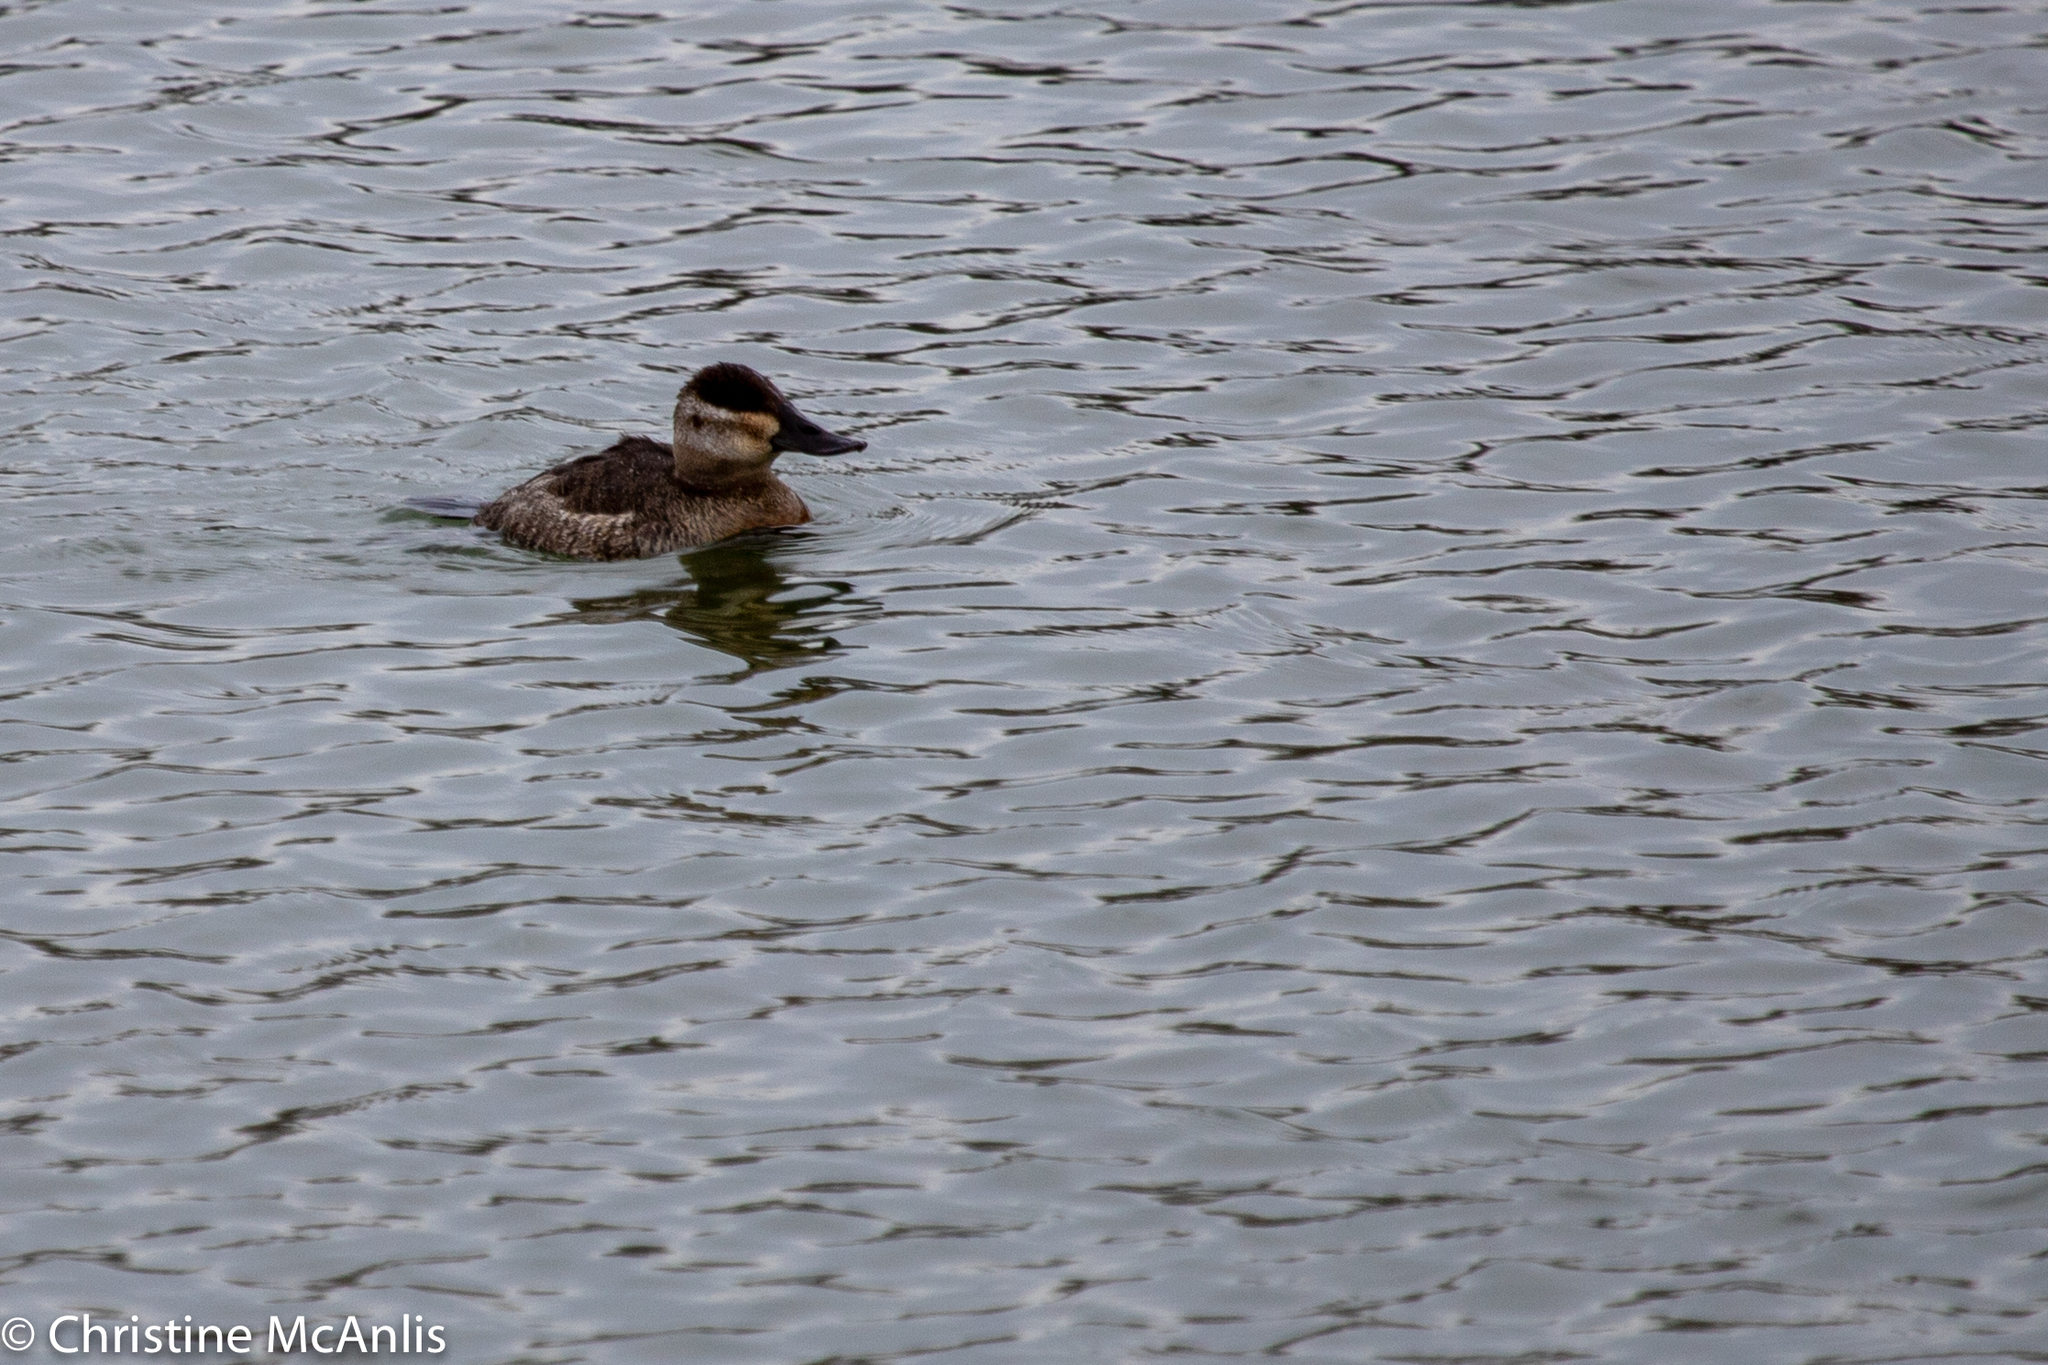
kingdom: Animalia
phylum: Chordata
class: Aves
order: Anseriformes
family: Anatidae
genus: Oxyura
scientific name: Oxyura jamaicensis
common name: Ruddy duck
